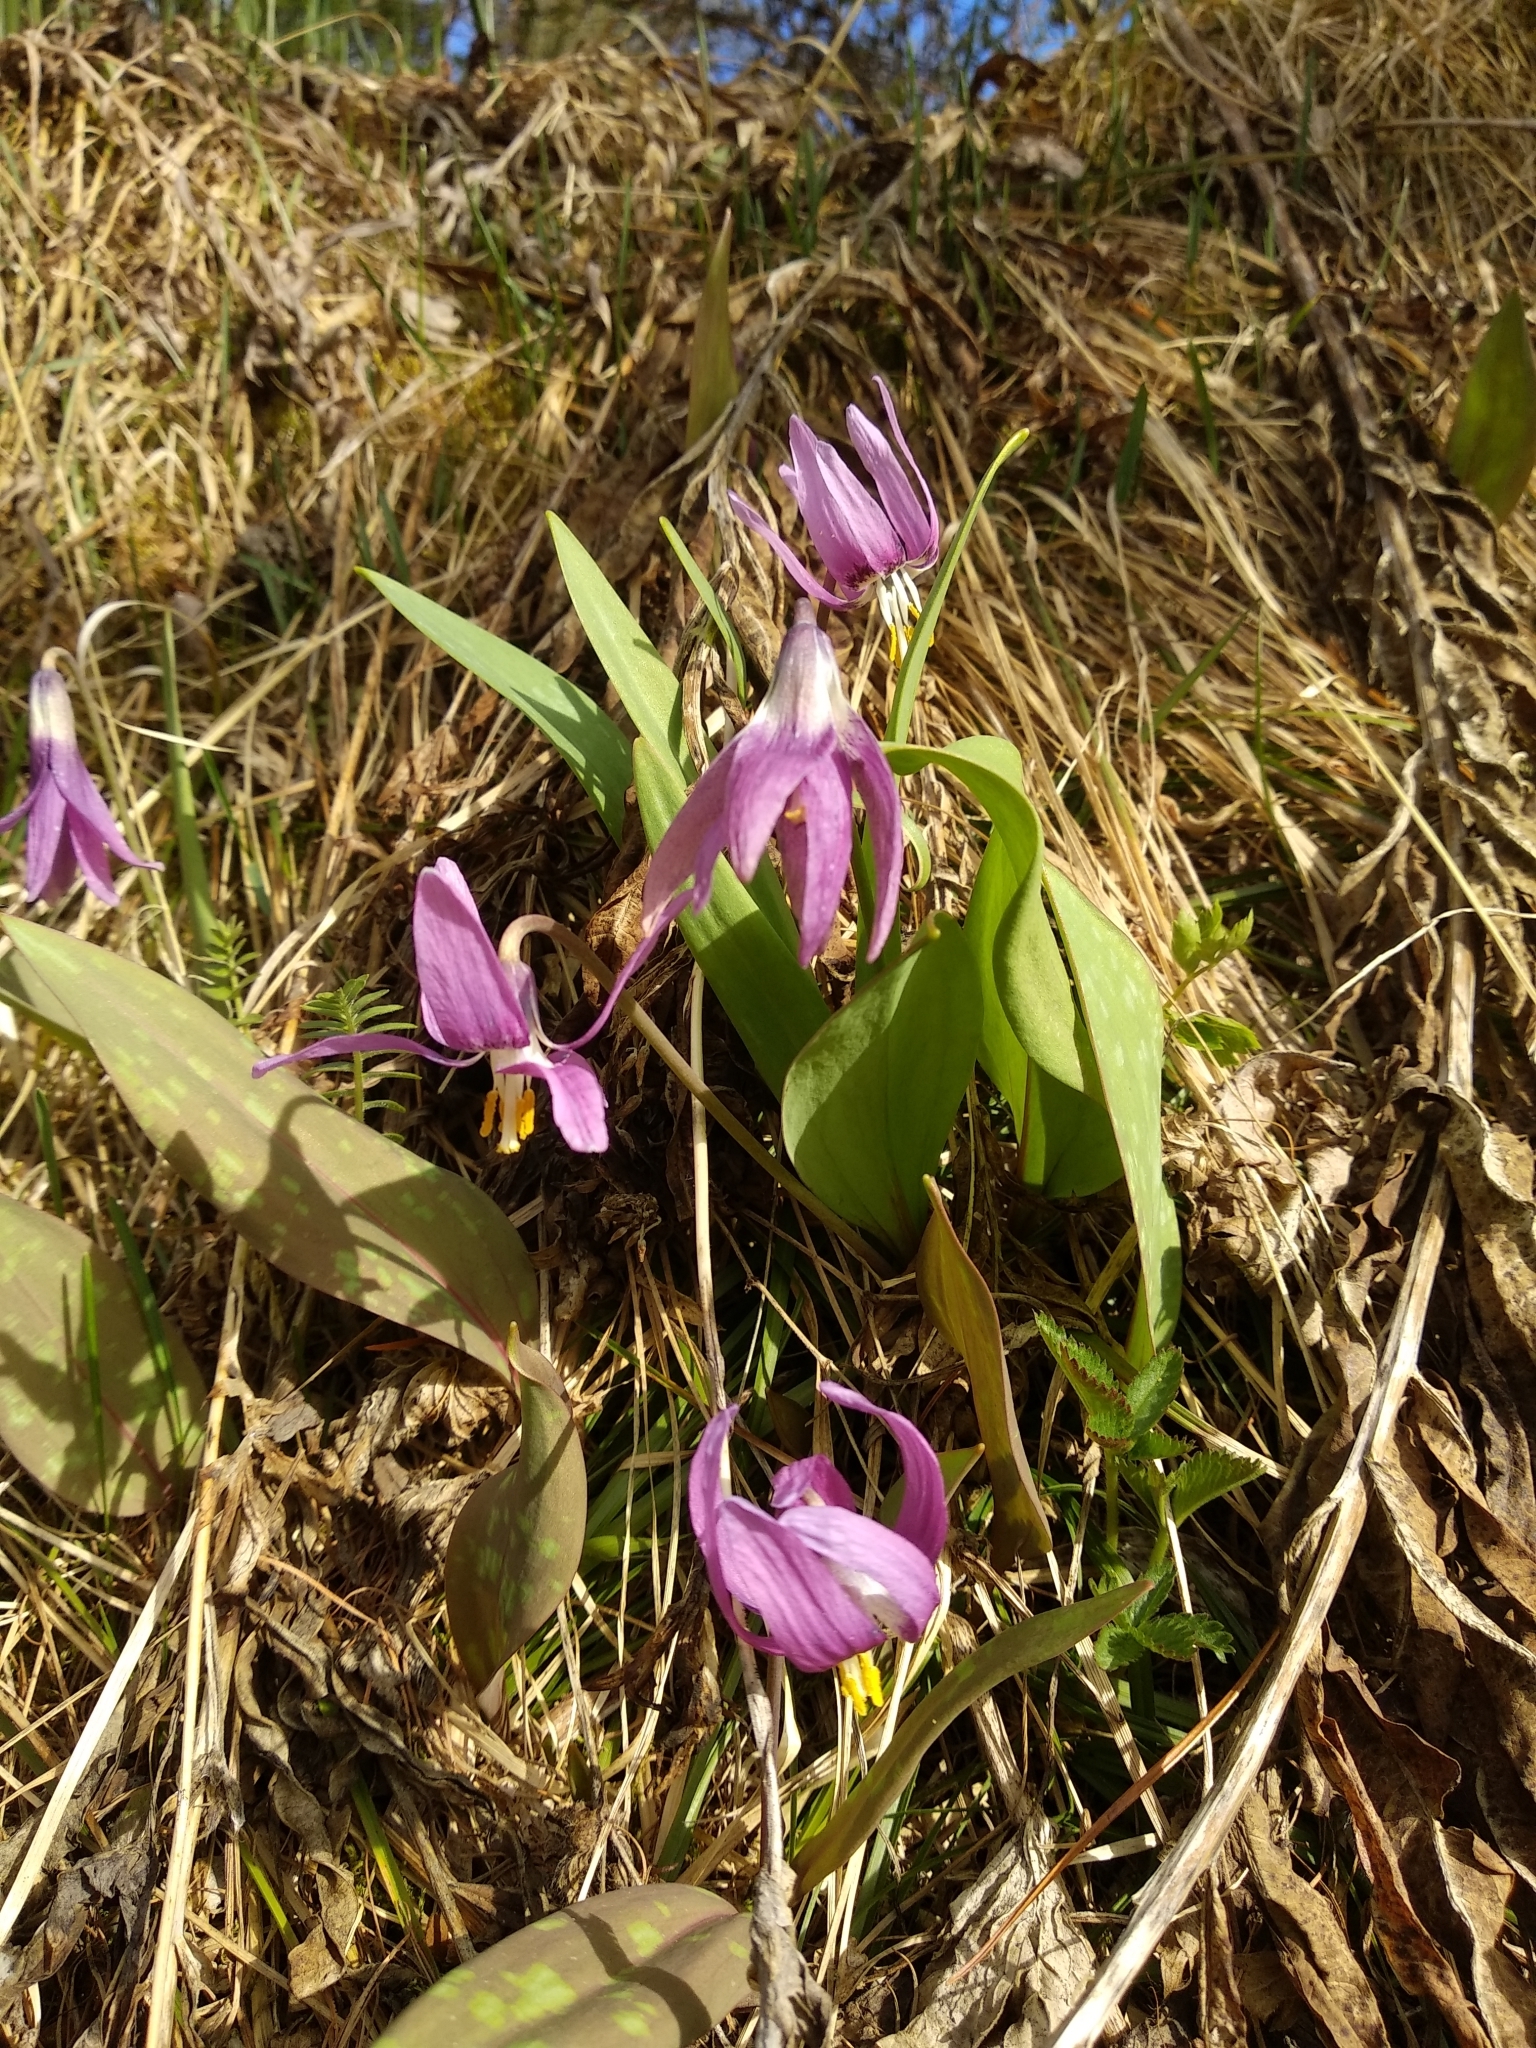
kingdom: Plantae
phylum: Tracheophyta
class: Liliopsida
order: Liliales
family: Liliaceae
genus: Erythronium
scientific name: Erythronium sibiricum
